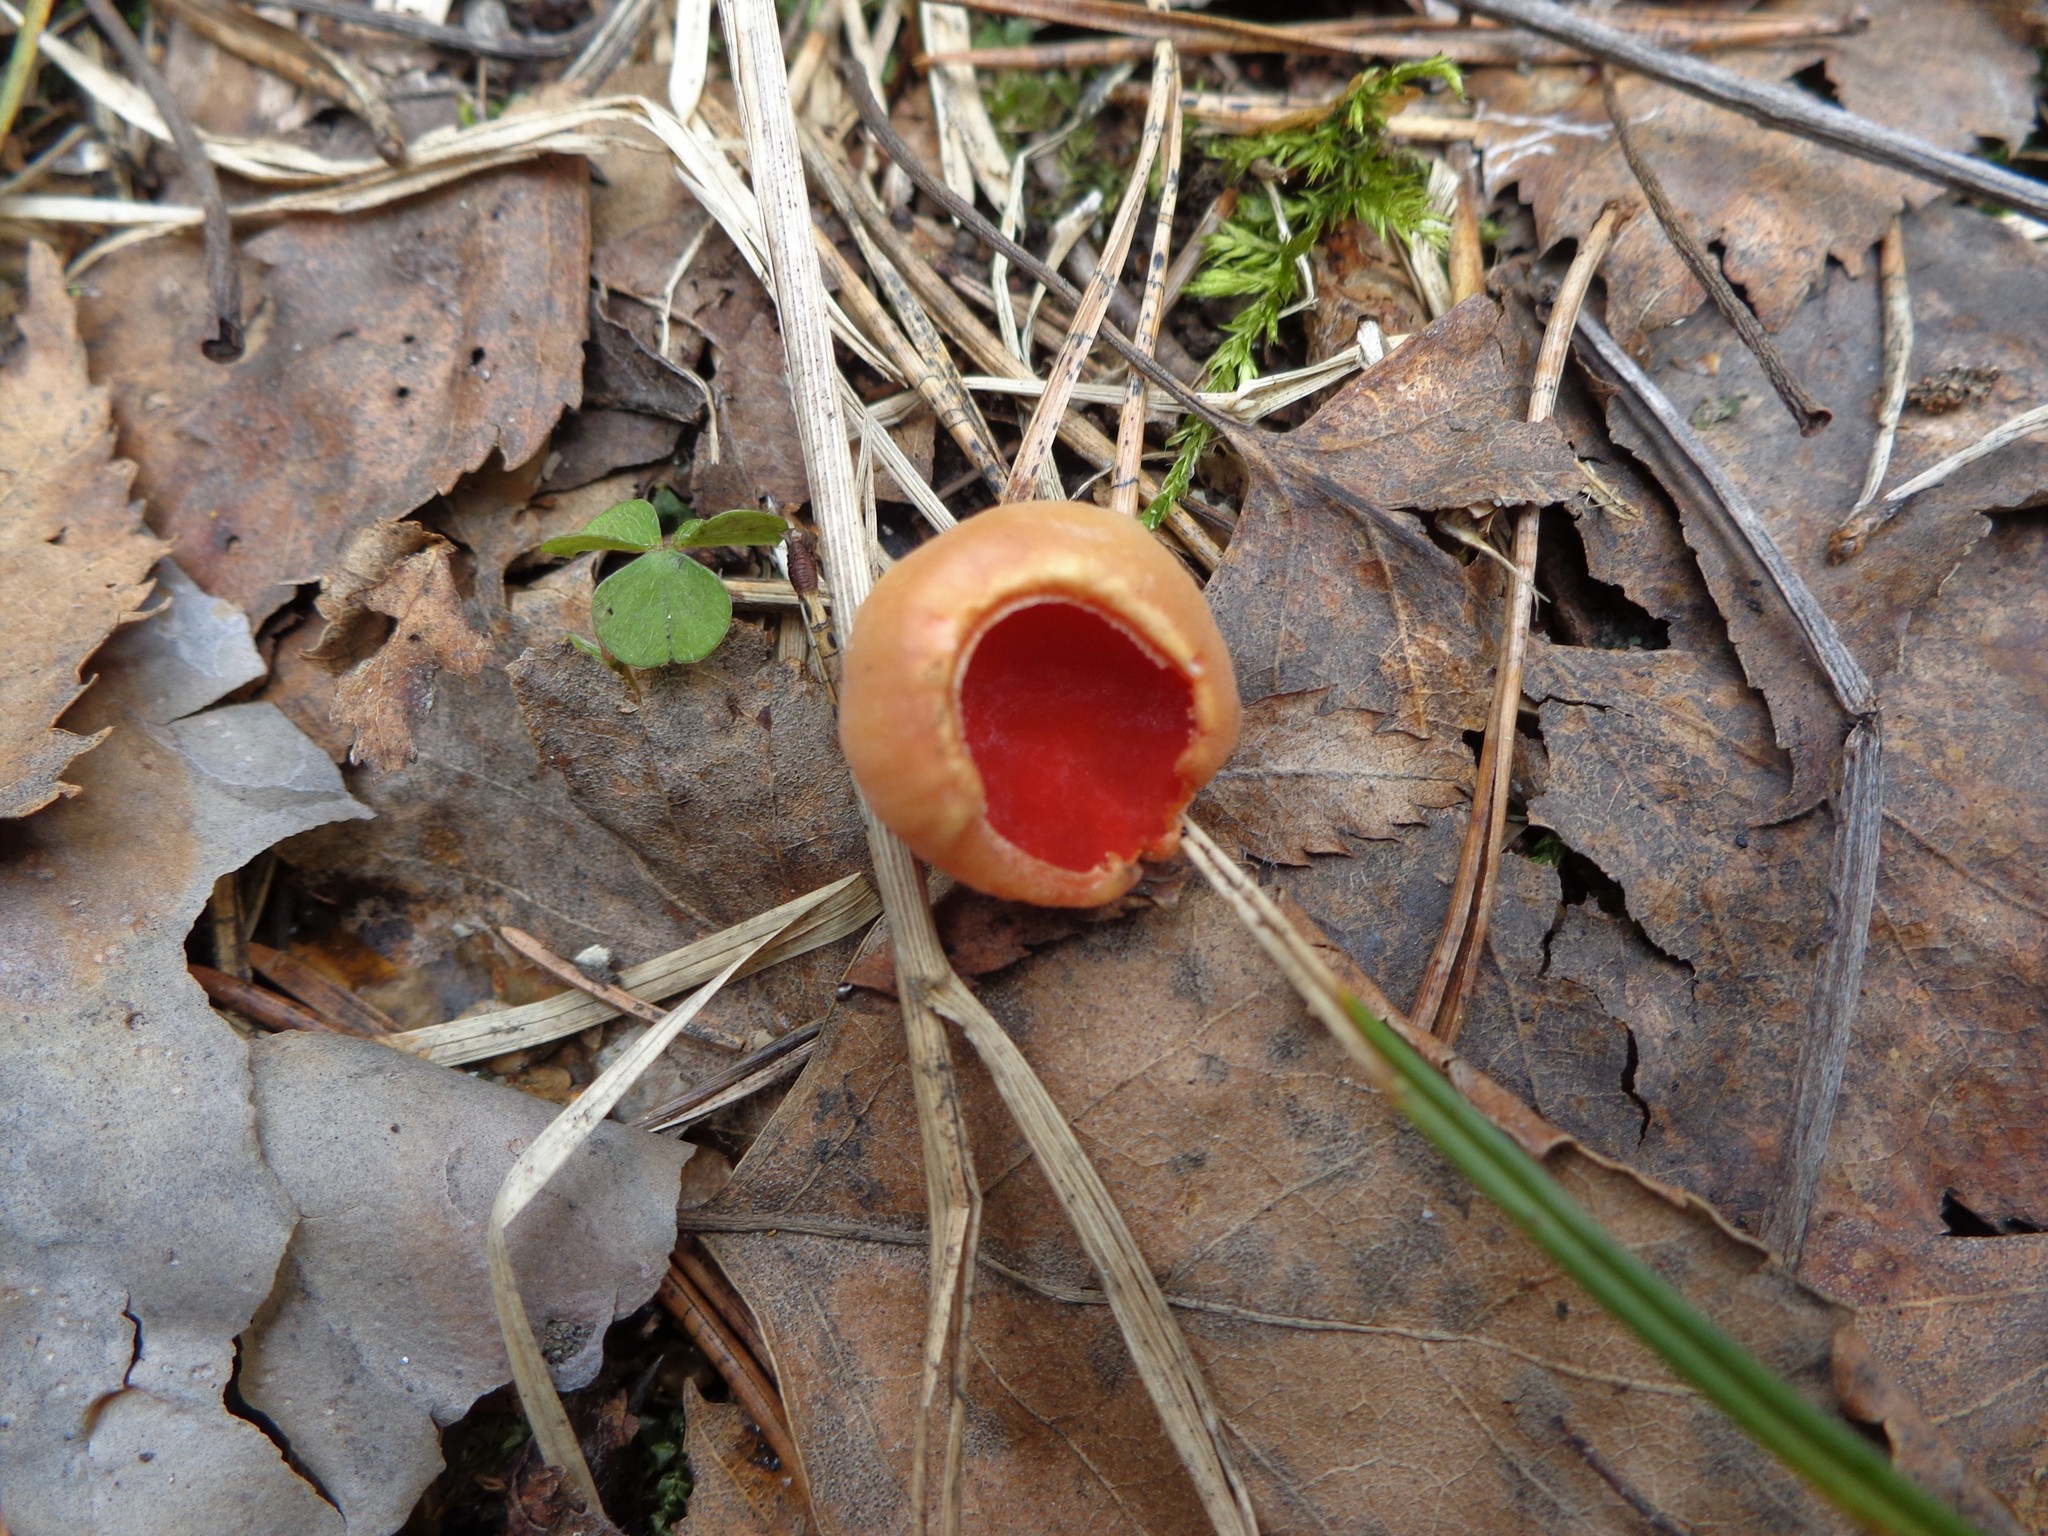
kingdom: Fungi
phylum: Ascomycota
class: Pezizomycetes
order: Pezizales
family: Sarcoscyphaceae
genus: Sarcoscypha
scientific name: Sarcoscypha austriaca
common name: Scarlet elfcup
